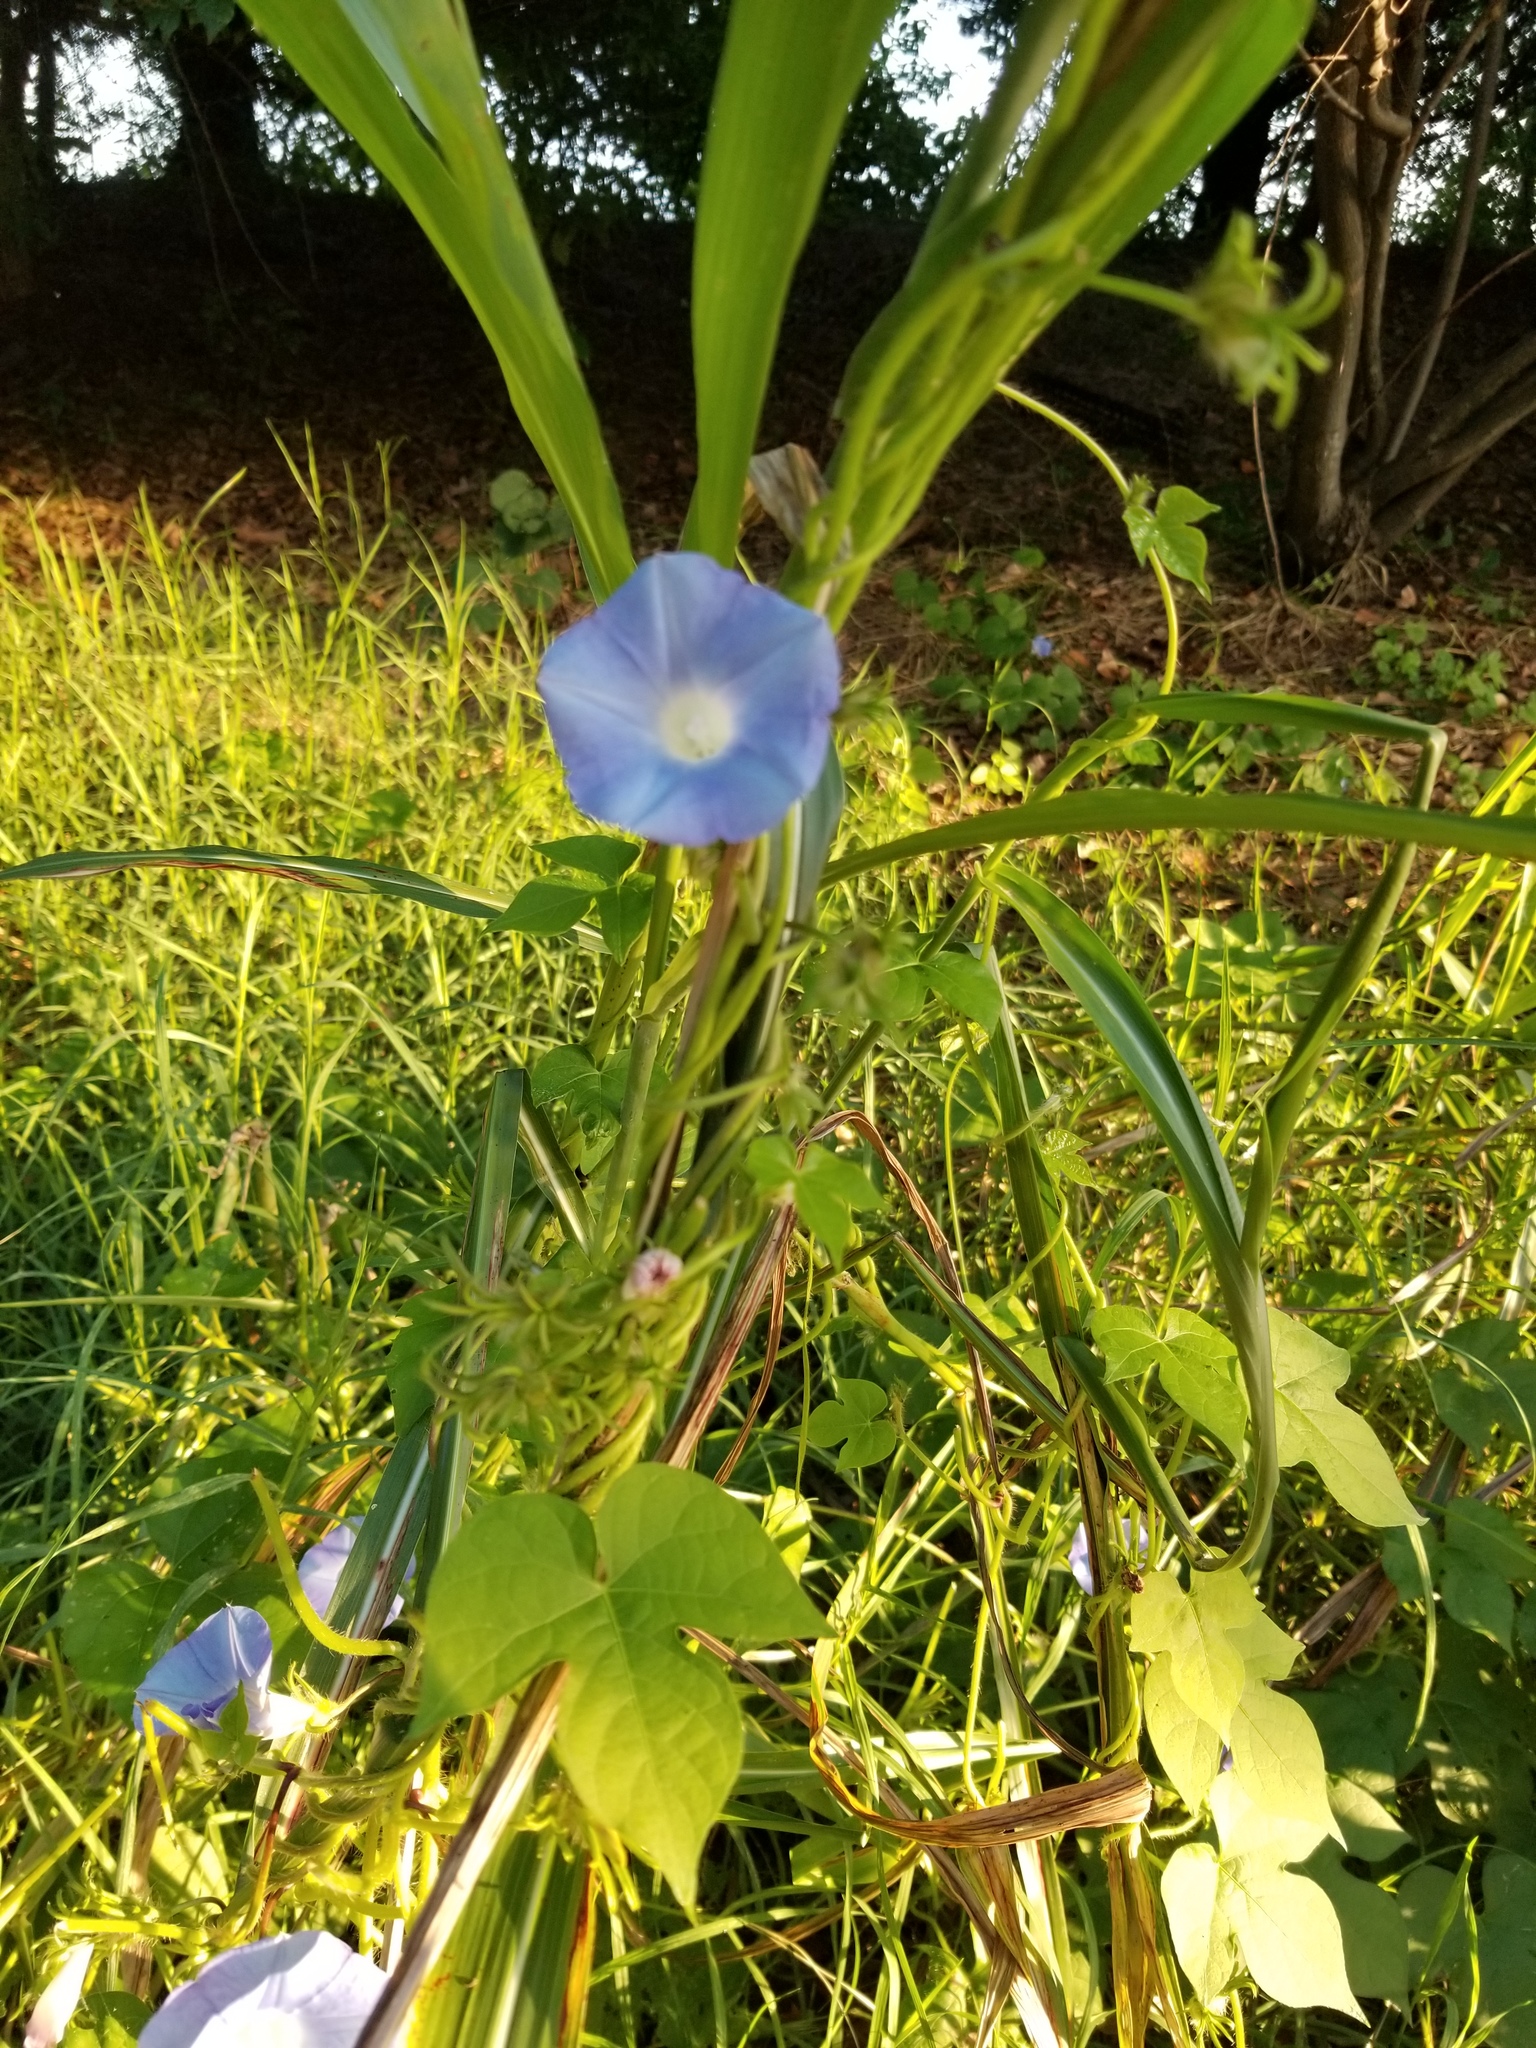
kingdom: Plantae
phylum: Tracheophyta
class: Magnoliopsida
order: Solanales
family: Convolvulaceae
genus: Ipomoea
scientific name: Ipomoea hederacea
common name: Ivy-leaved morning-glory
